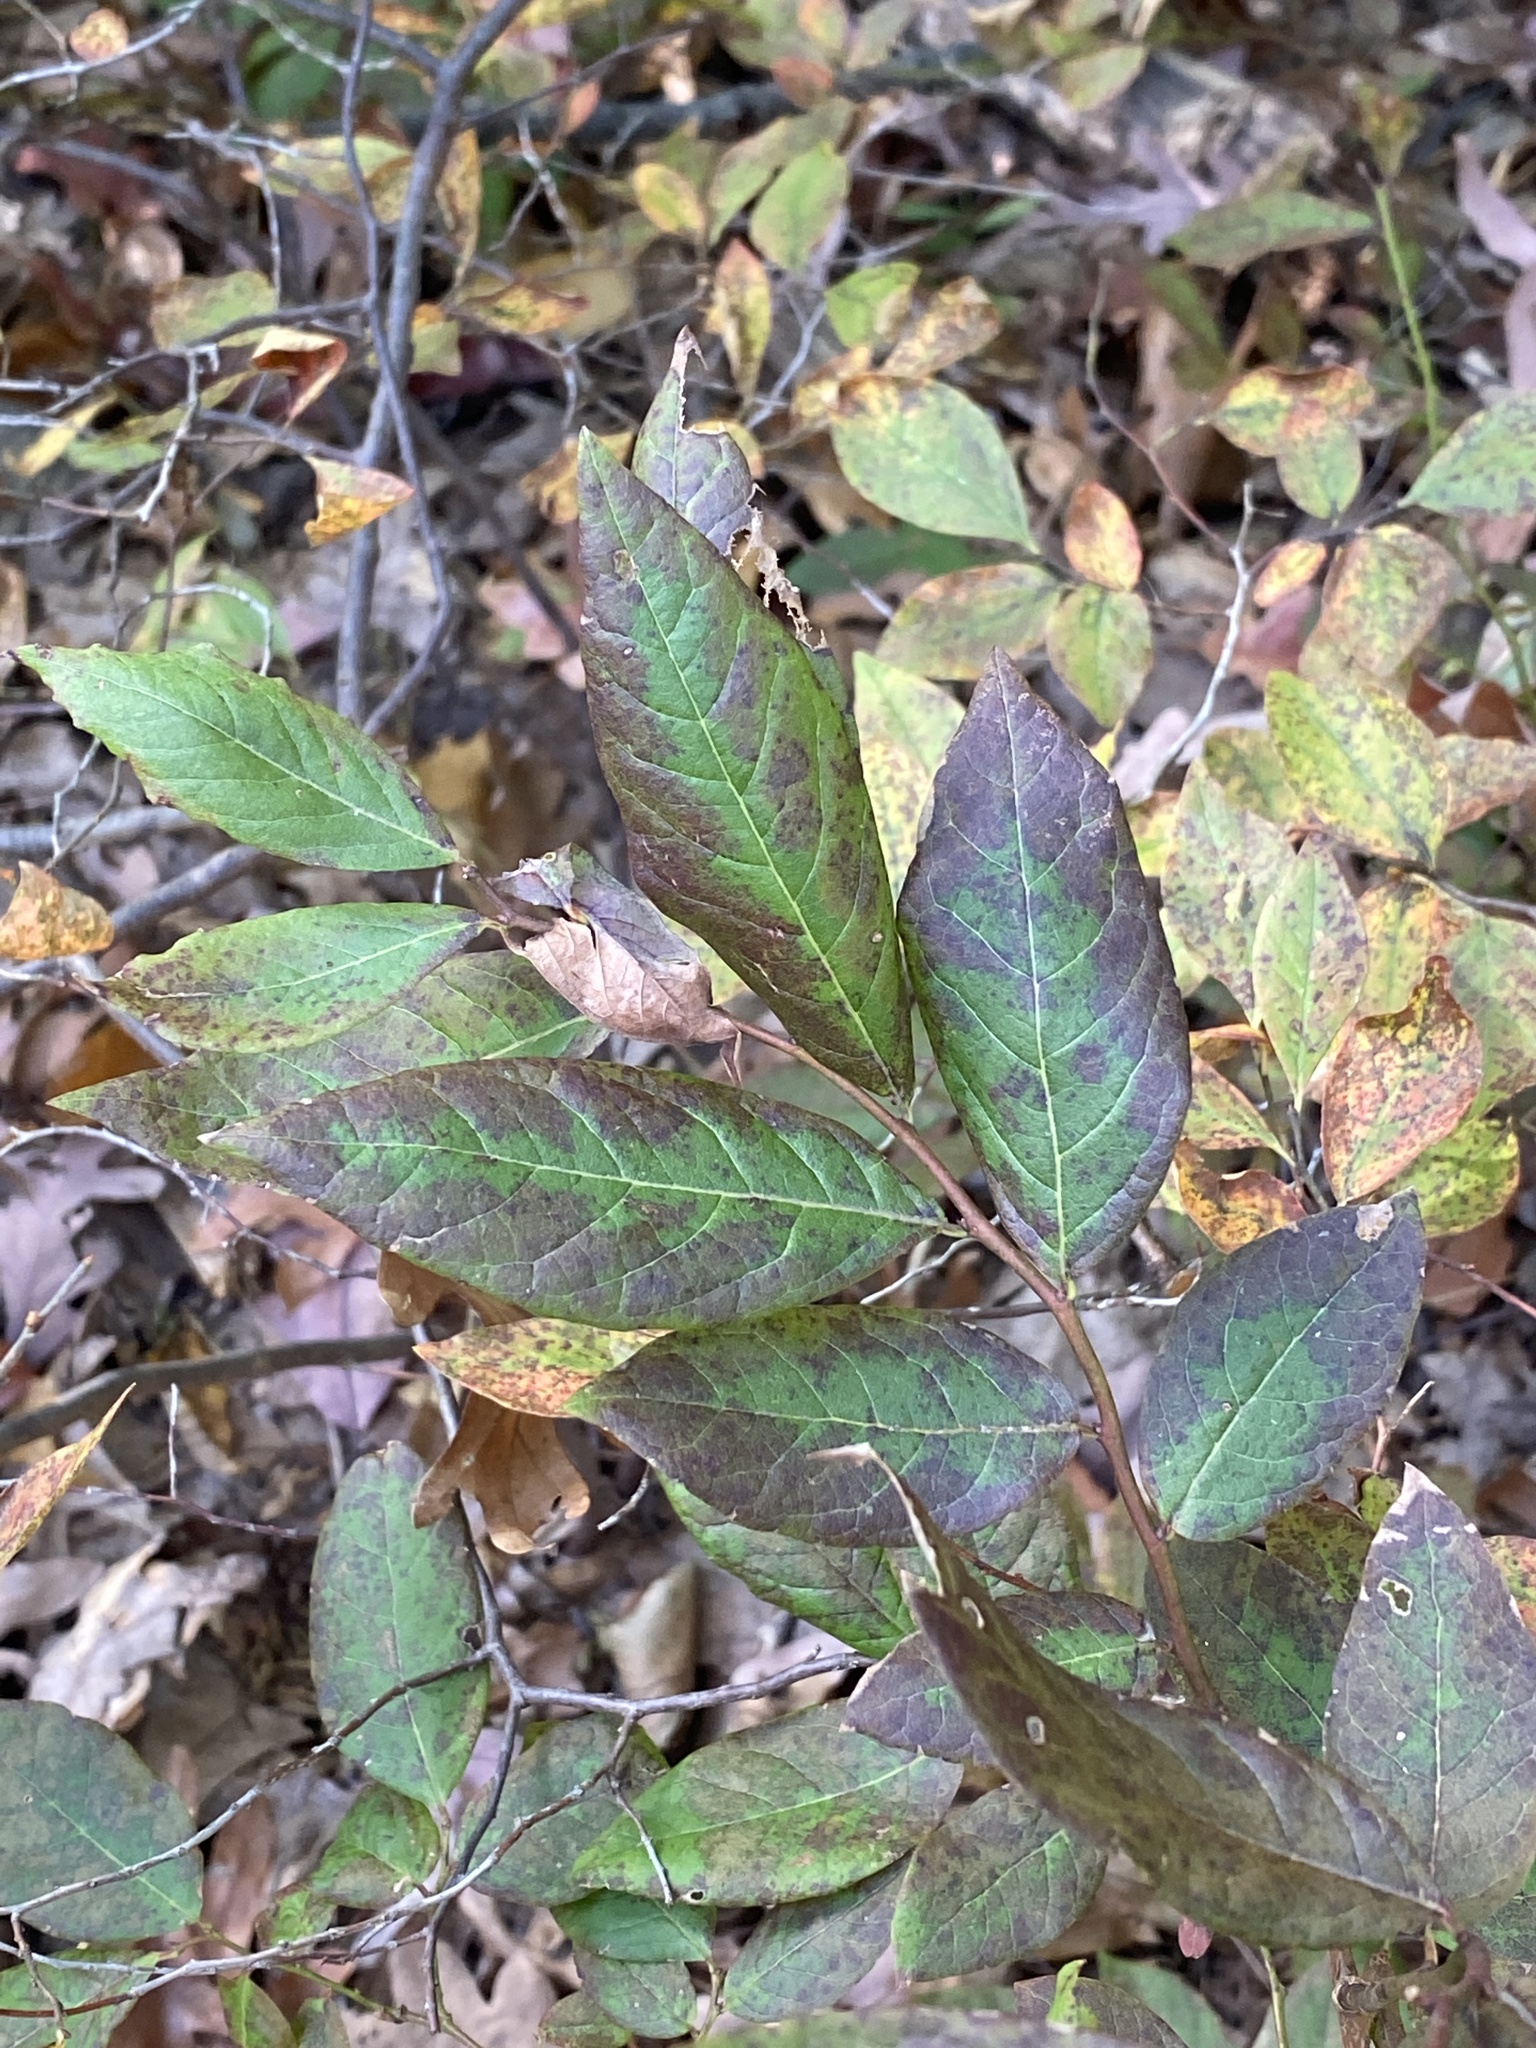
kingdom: Plantae
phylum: Tracheophyta
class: Magnoliopsida
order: Ericales
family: Ericaceae
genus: Gaylussacia
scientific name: Gaylussacia baccata
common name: Black huckleberry
